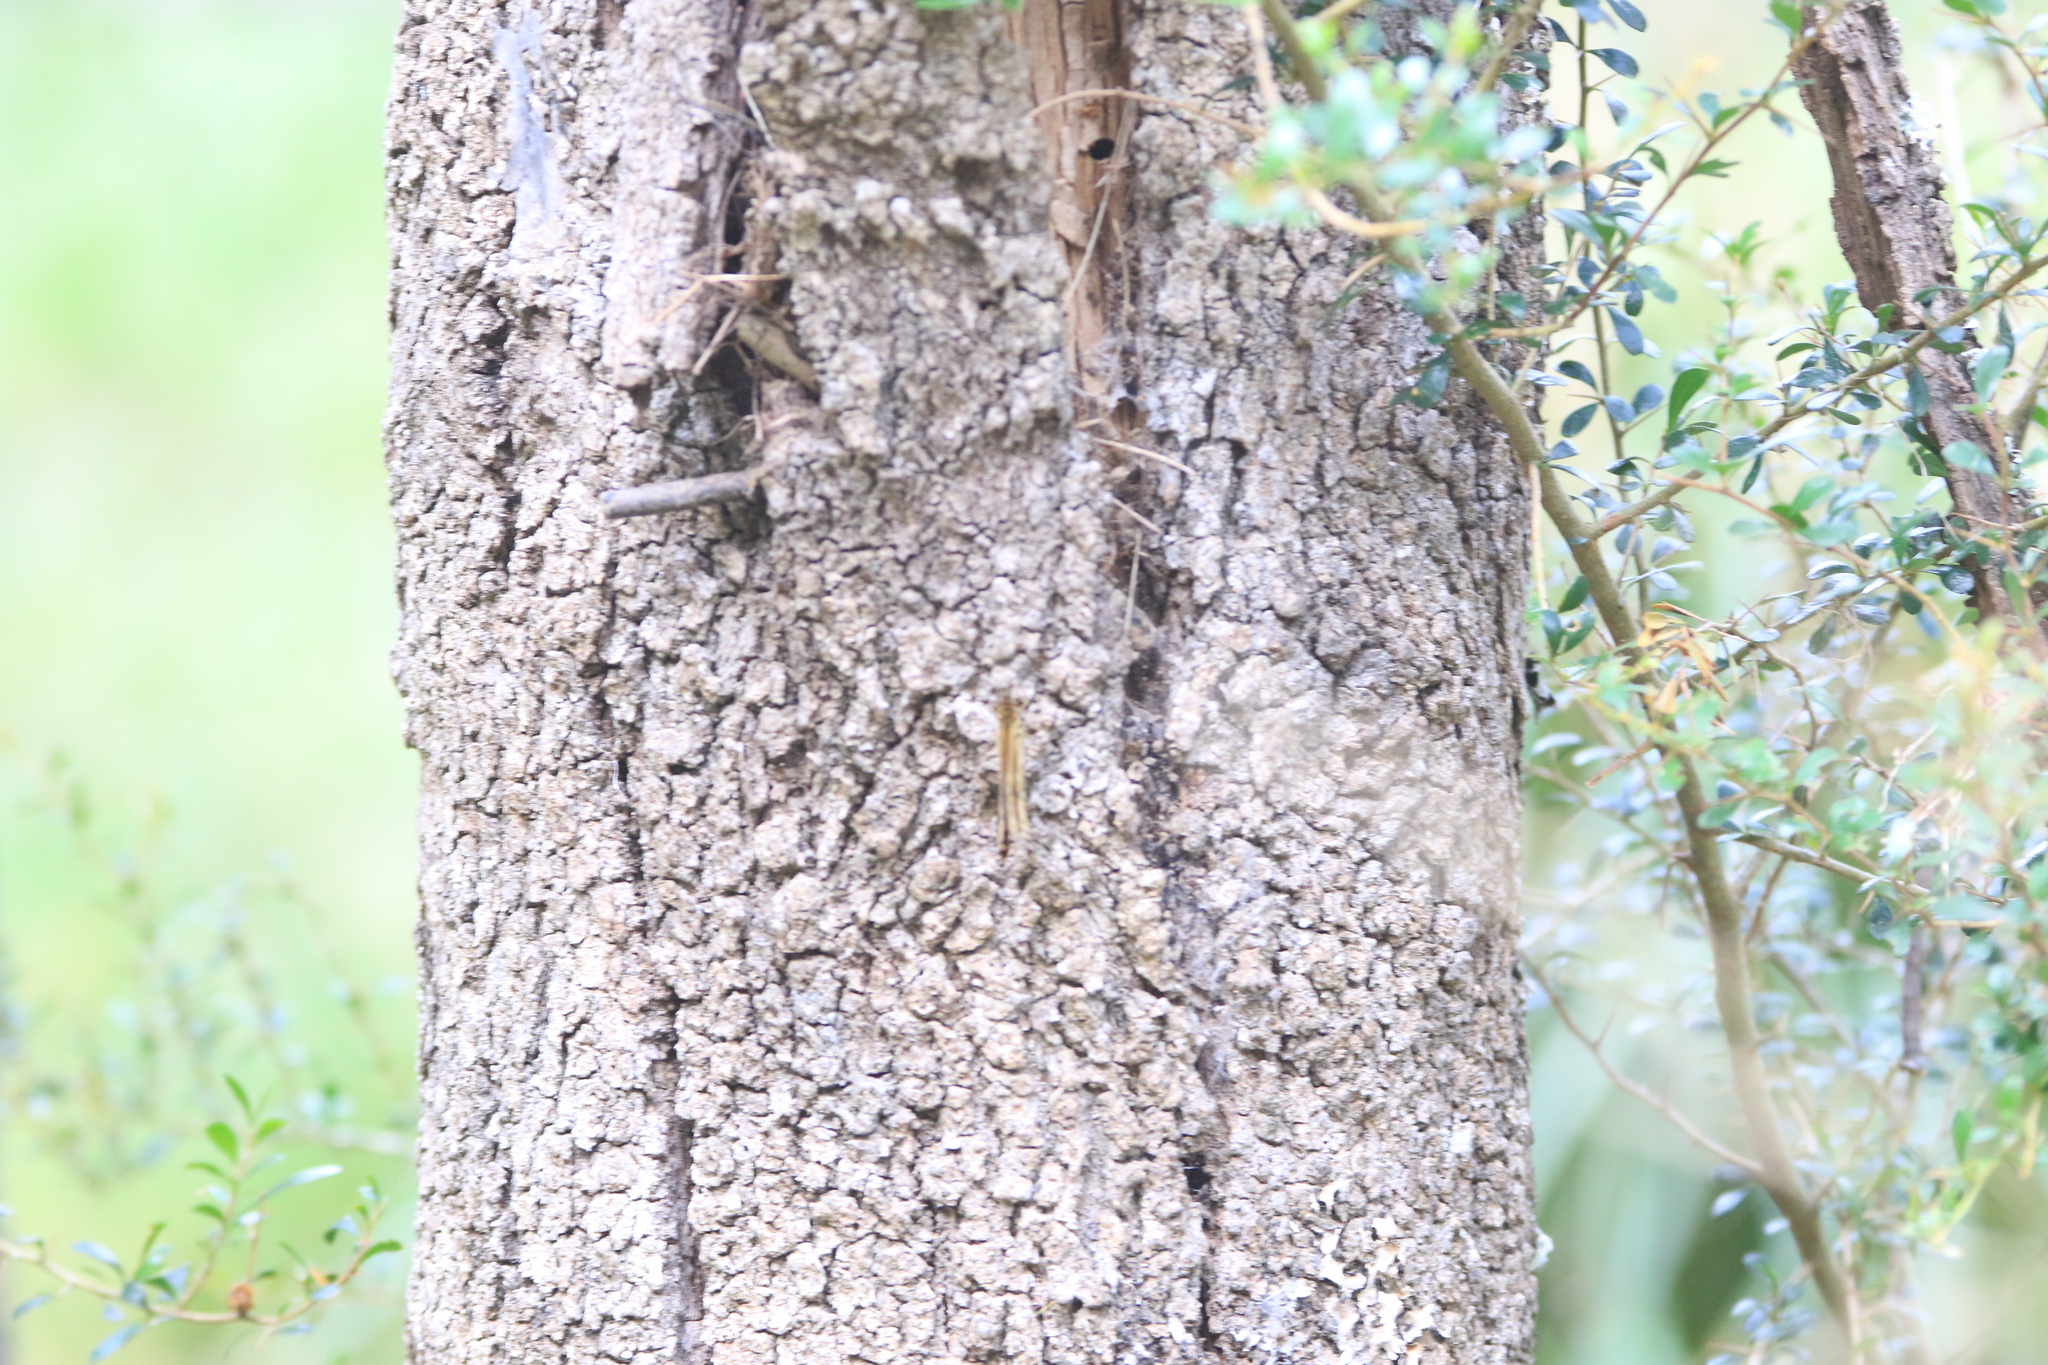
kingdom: Animalia
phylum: Arthropoda
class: Insecta
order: Lepidoptera
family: Nymphalidae
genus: Geitoneura
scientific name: Geitoneura acantha
